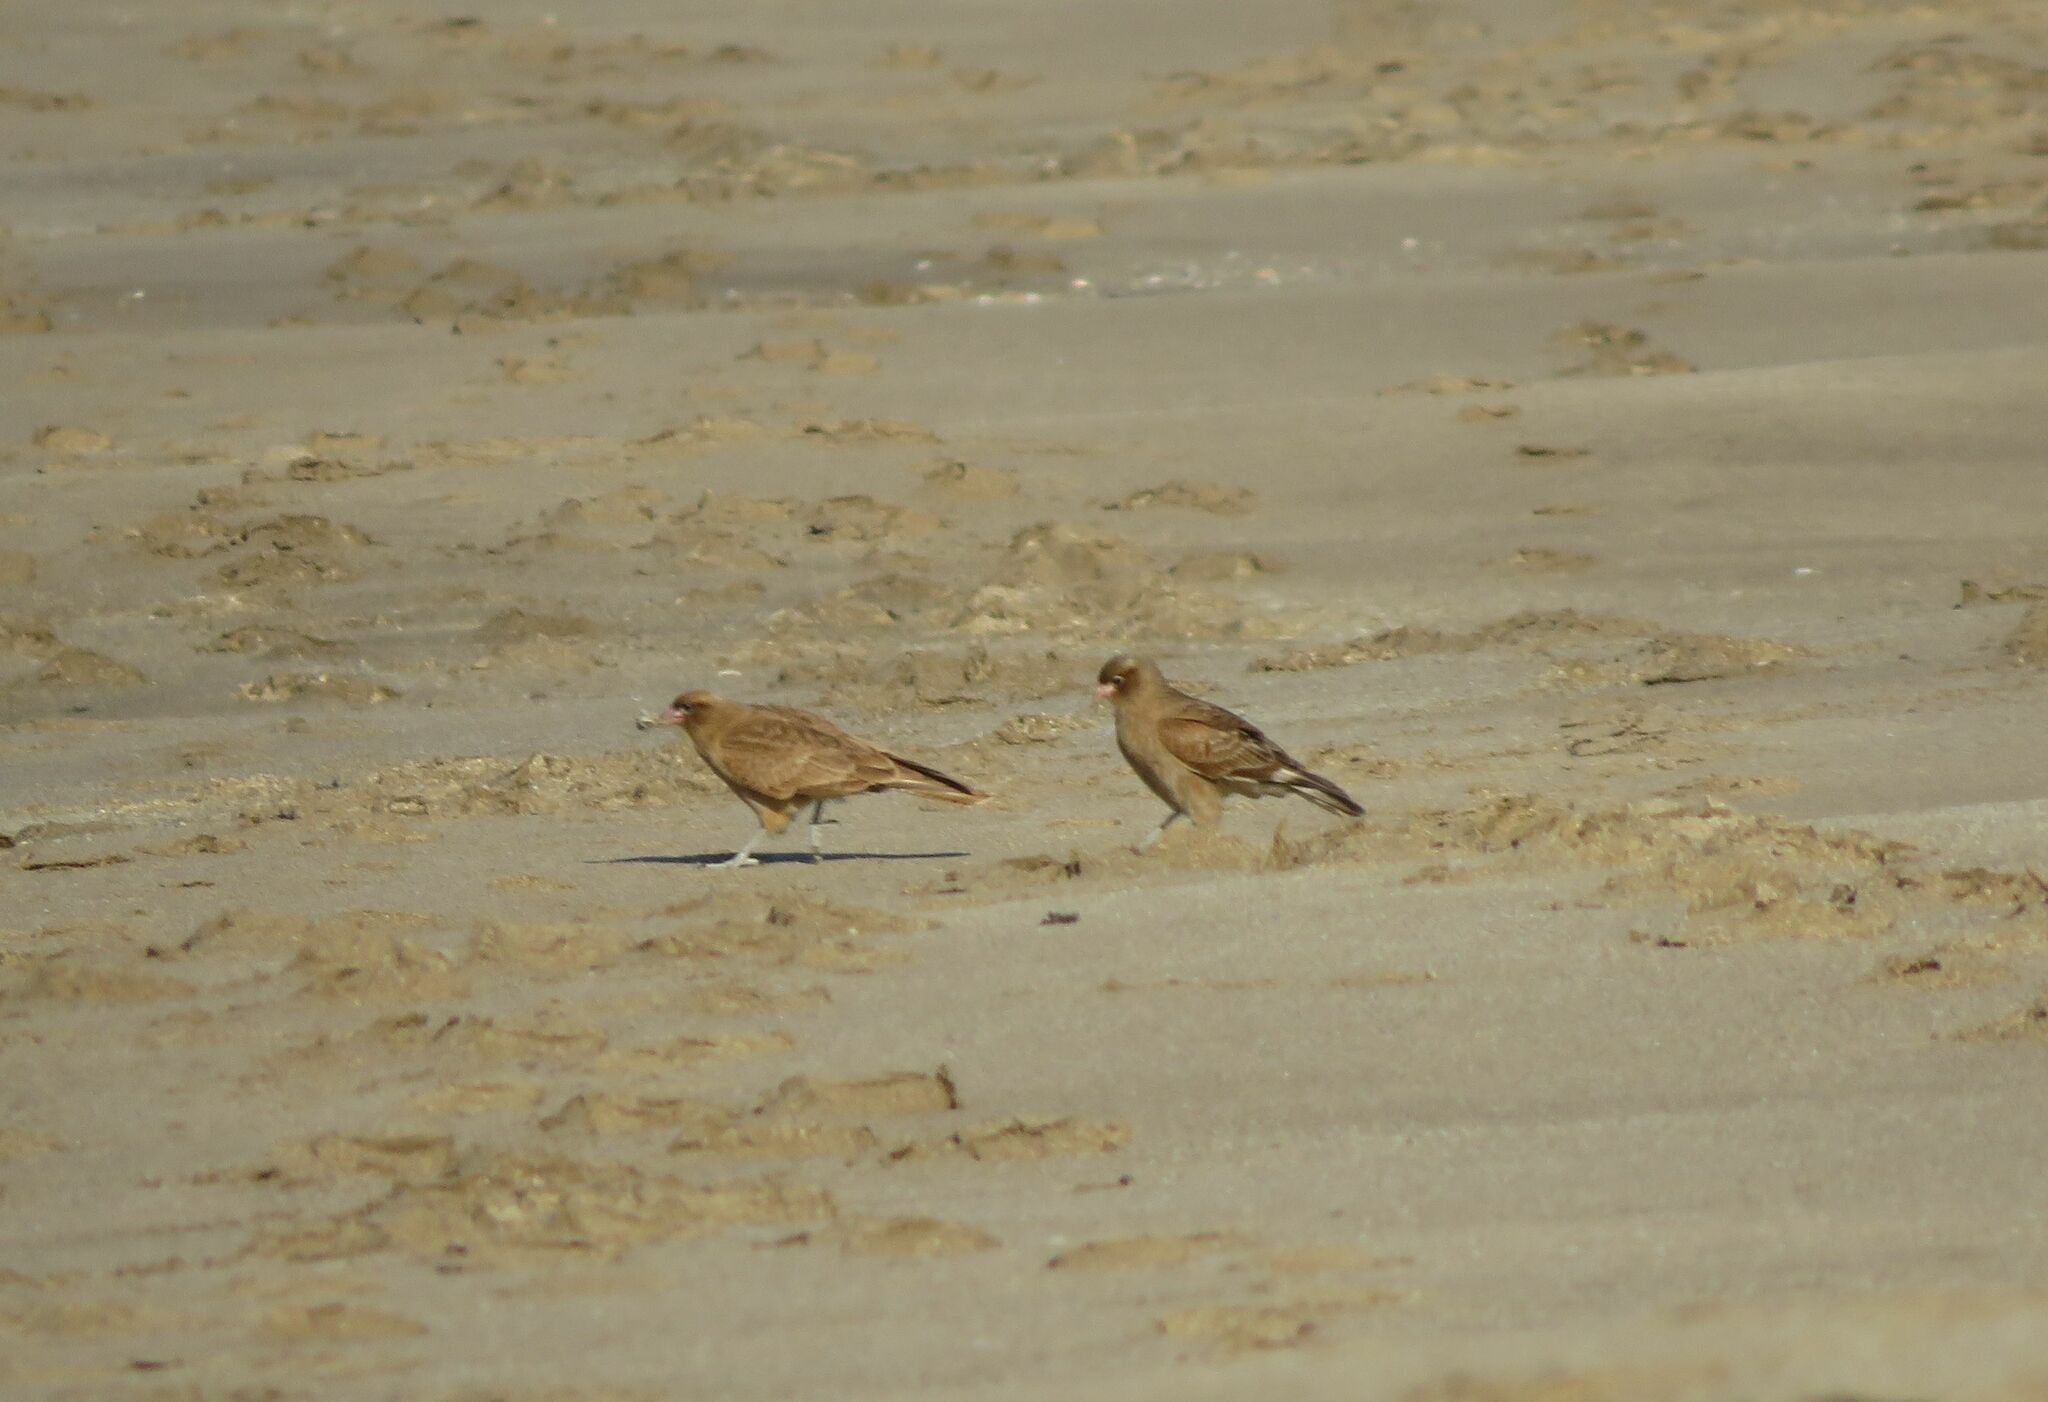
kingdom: Animalia
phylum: Chordata
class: Aves
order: Falconiformes
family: Falconidae
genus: Daptrius
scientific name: Daptrius
